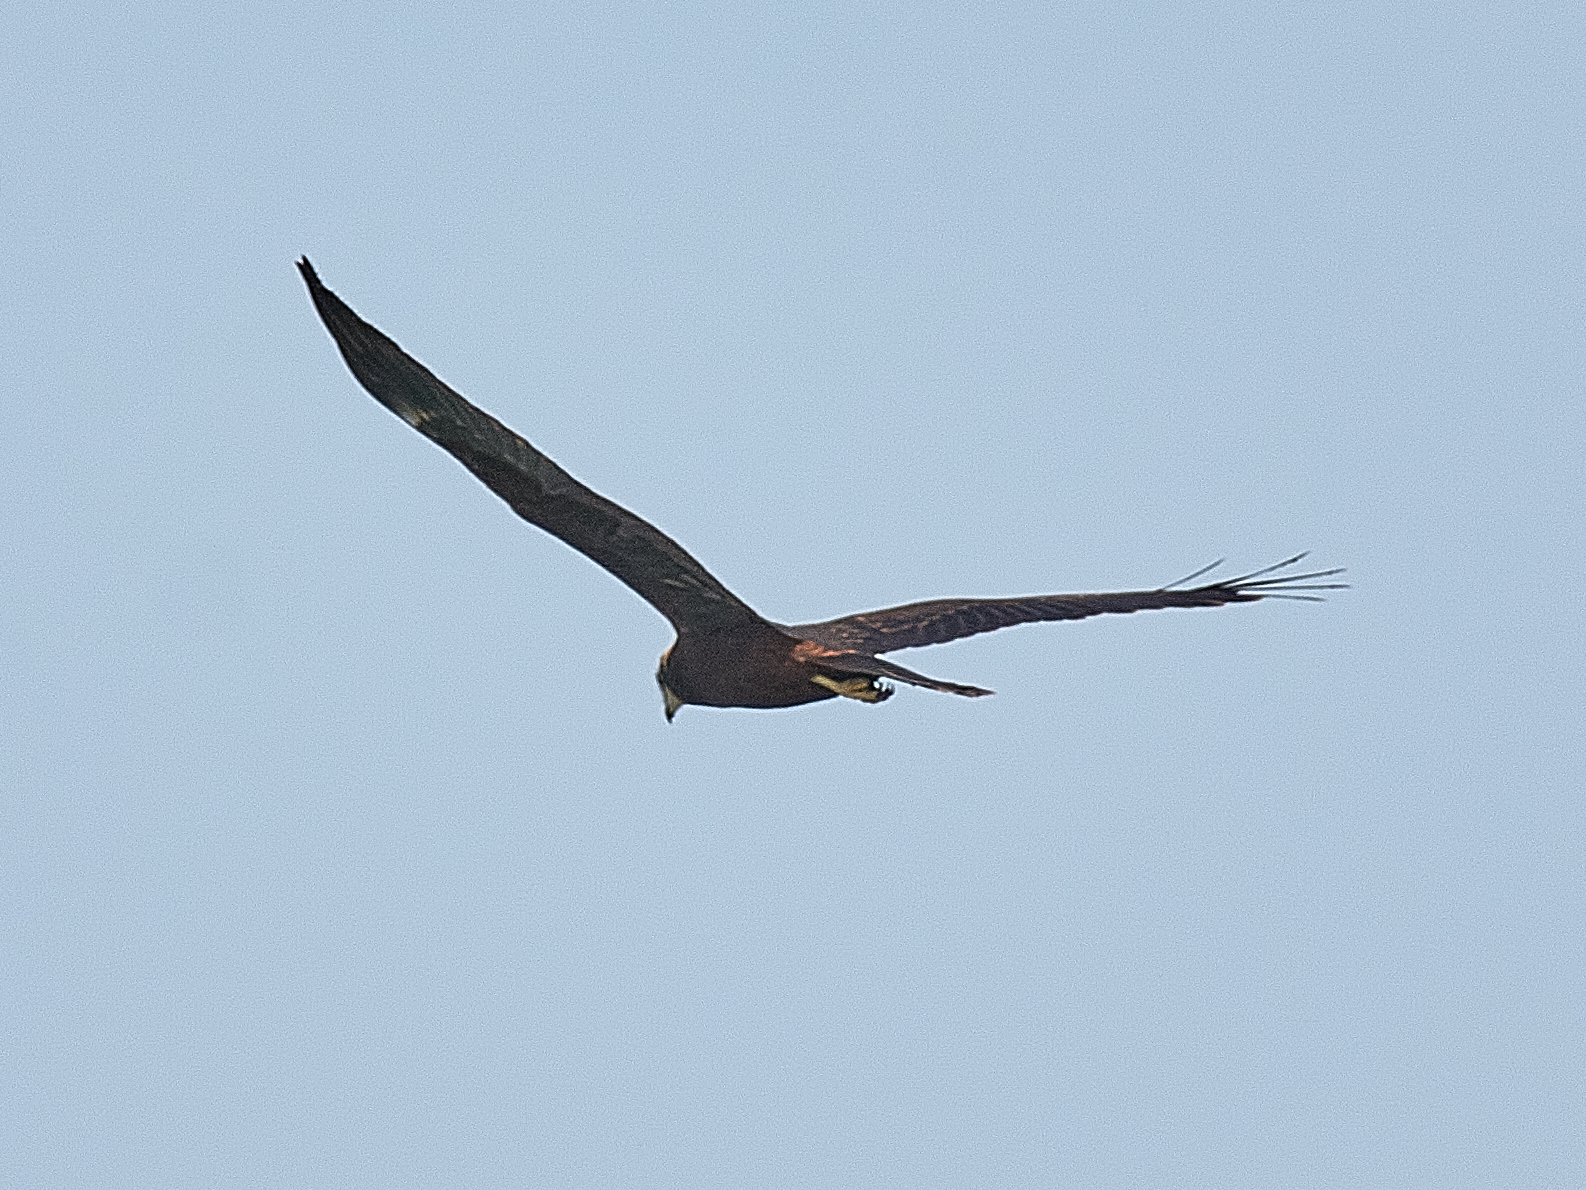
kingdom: Animalia
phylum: Chordata
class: Aves
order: Accipitriformes
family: Accipitridae
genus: Circus
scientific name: Circus aeruginosus
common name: Western marsh harrier
